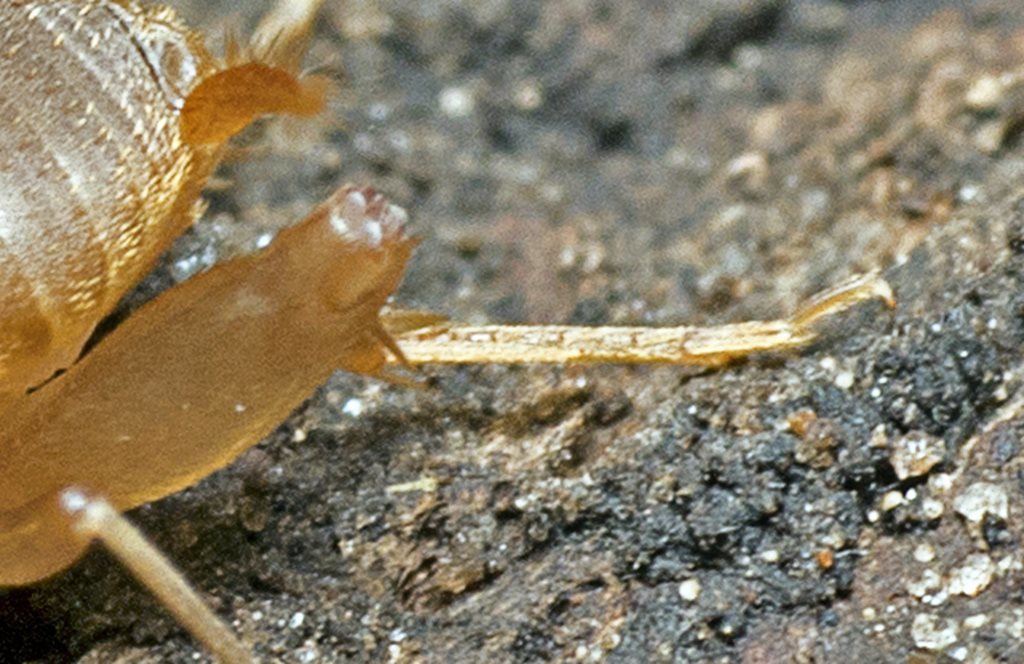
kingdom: Animalia
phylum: Arthropoda
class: Insecta
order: Orthoptera
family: Myrmecophilidae
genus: Myrmecophilus
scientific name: Myrmecophilus parachilnus
